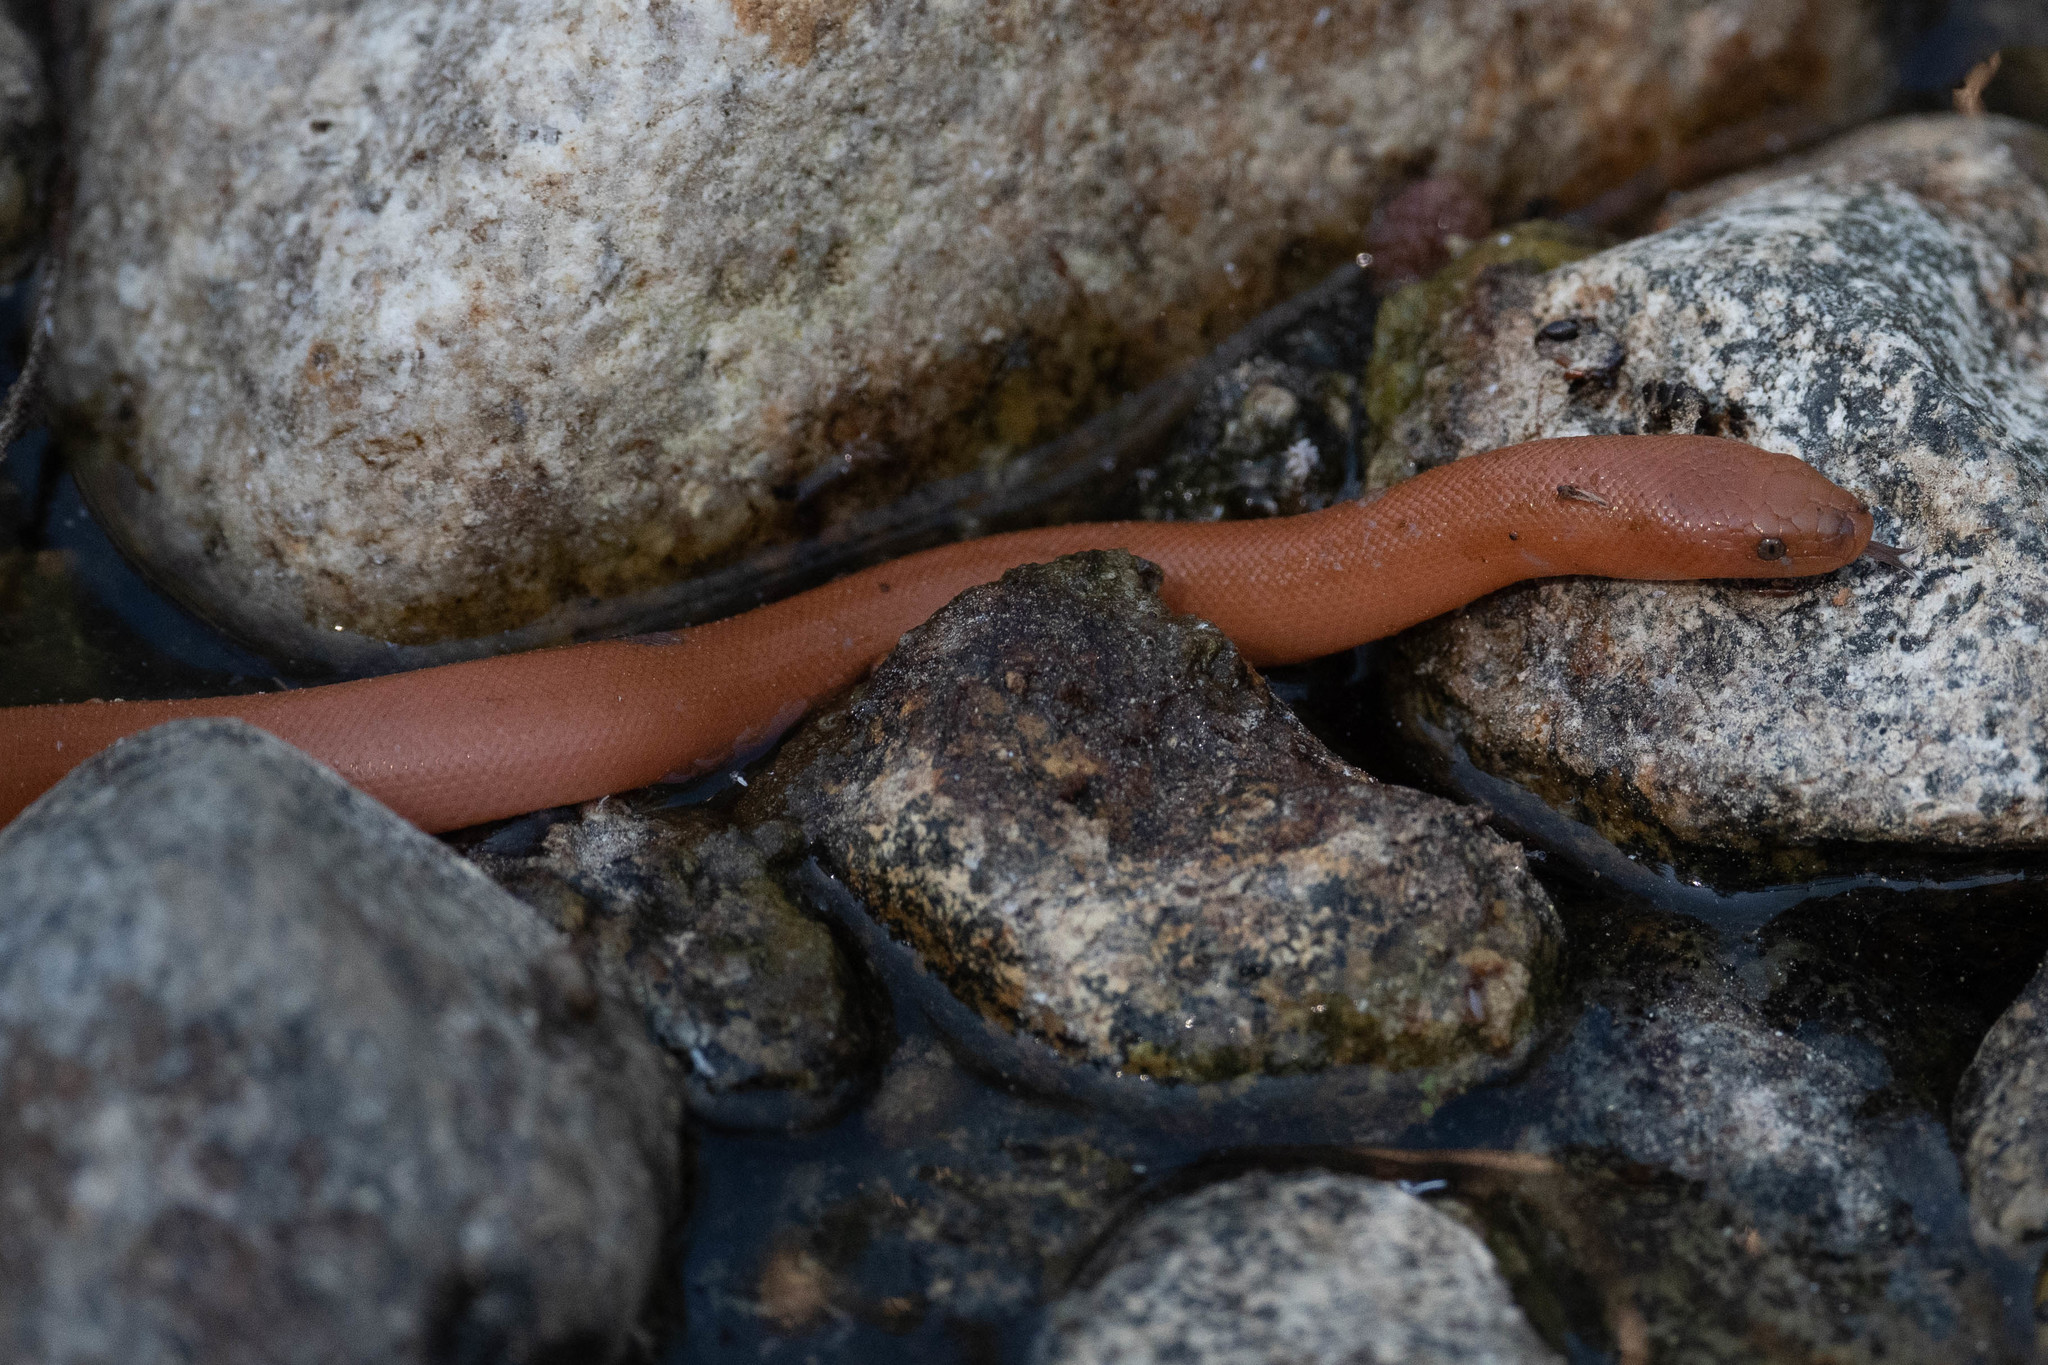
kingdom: Animalia
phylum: Chordata
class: Squamata
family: Boidae
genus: Charina
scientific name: Charina bottae
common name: Northern rubber boa
